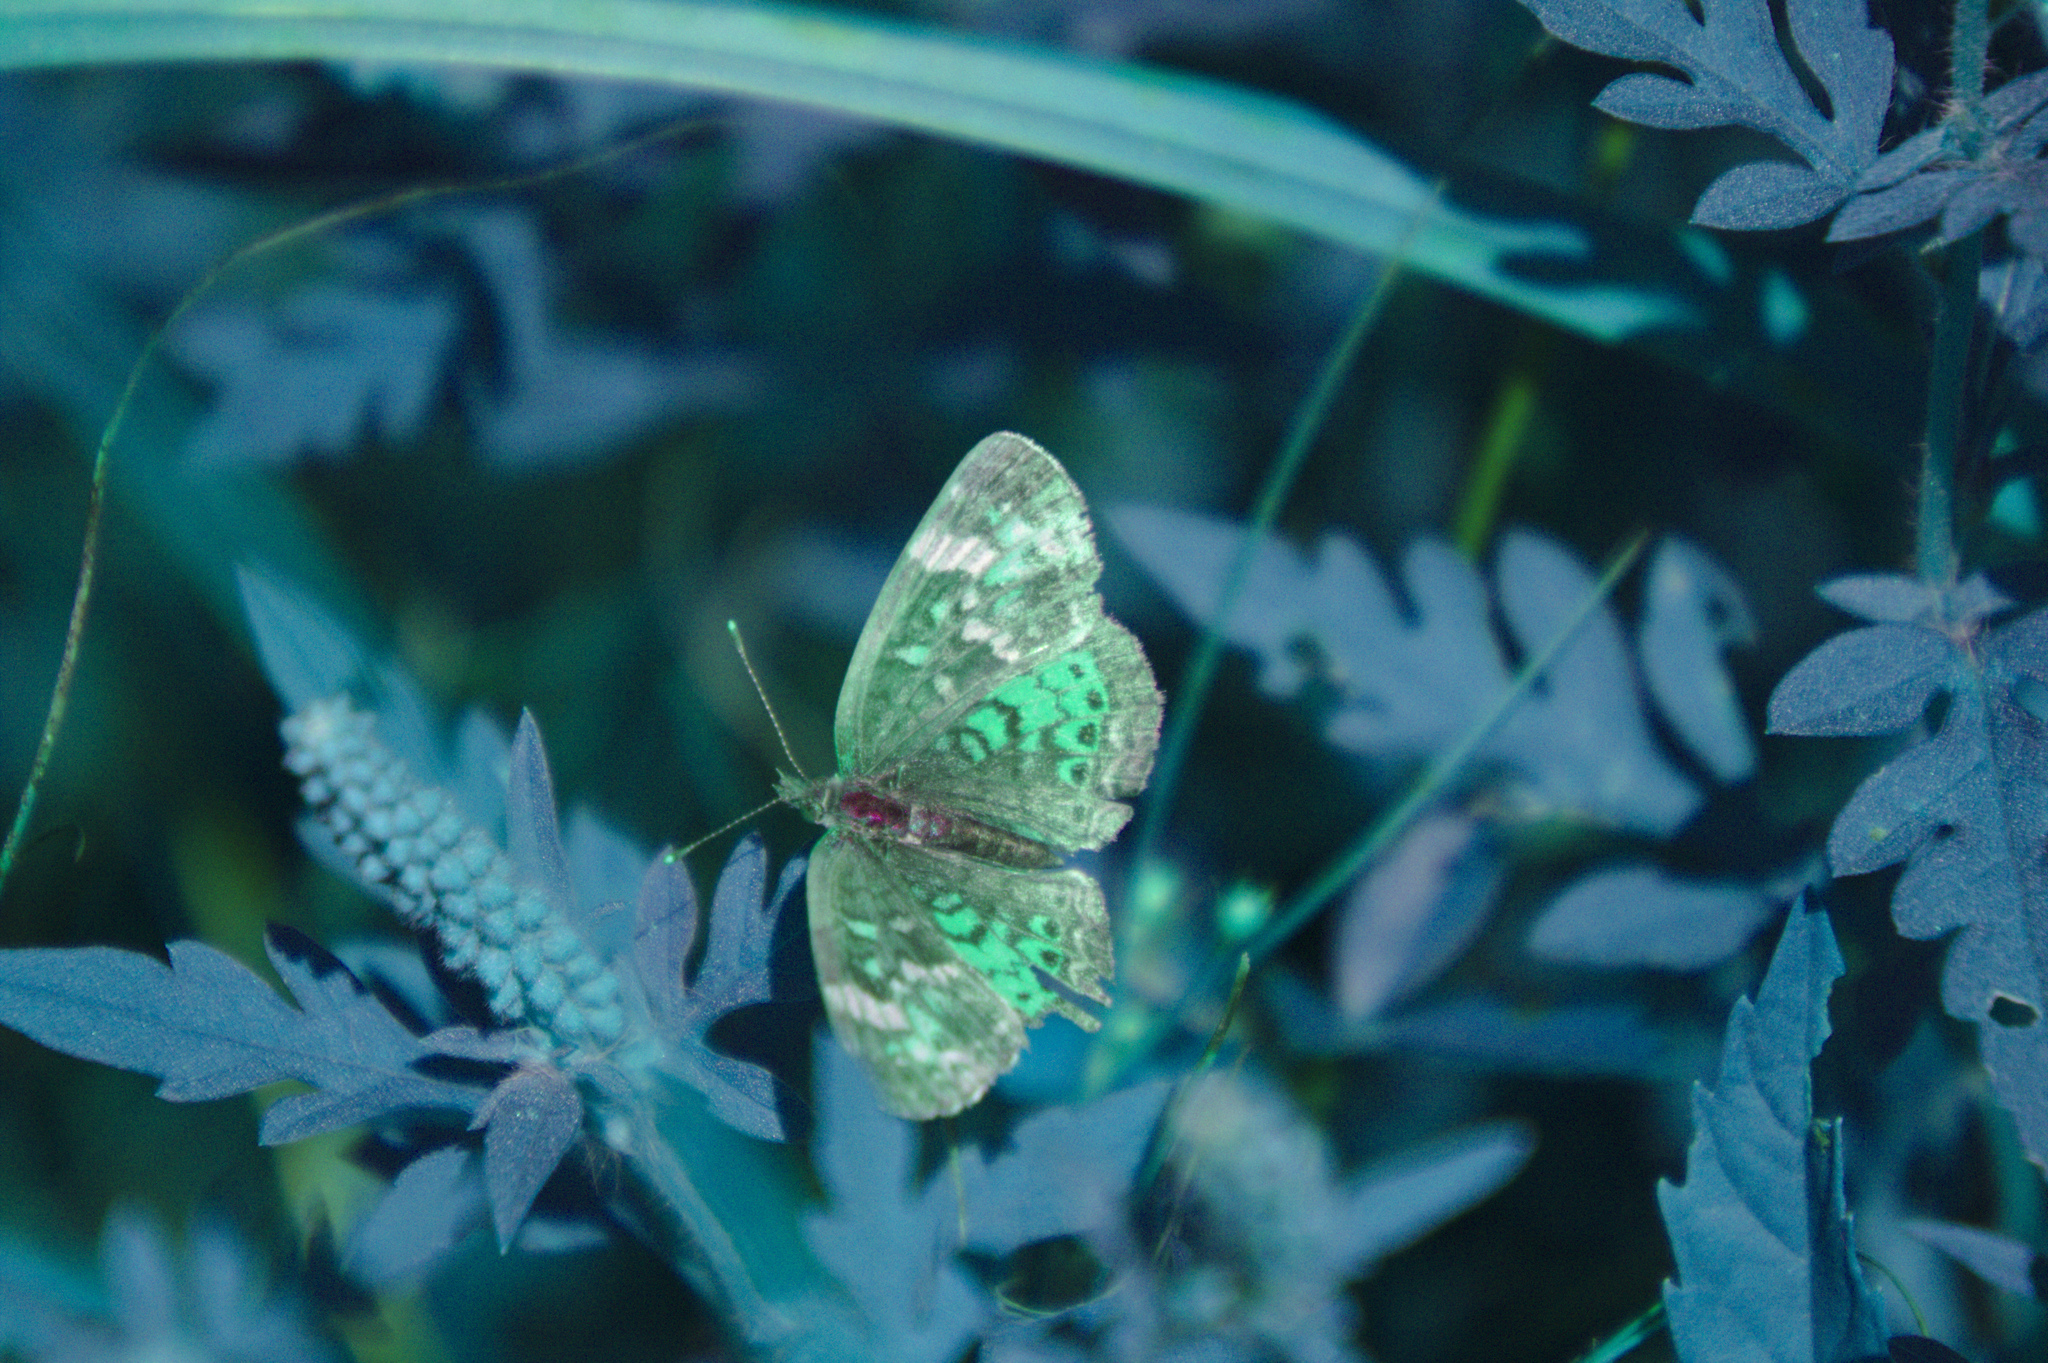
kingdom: Animalia
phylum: Arthropoda
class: Insecta
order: Lepidoptera
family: Nymphalidae
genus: Phyciodes
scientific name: Phyciodes tharos
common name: Pearl crescent
